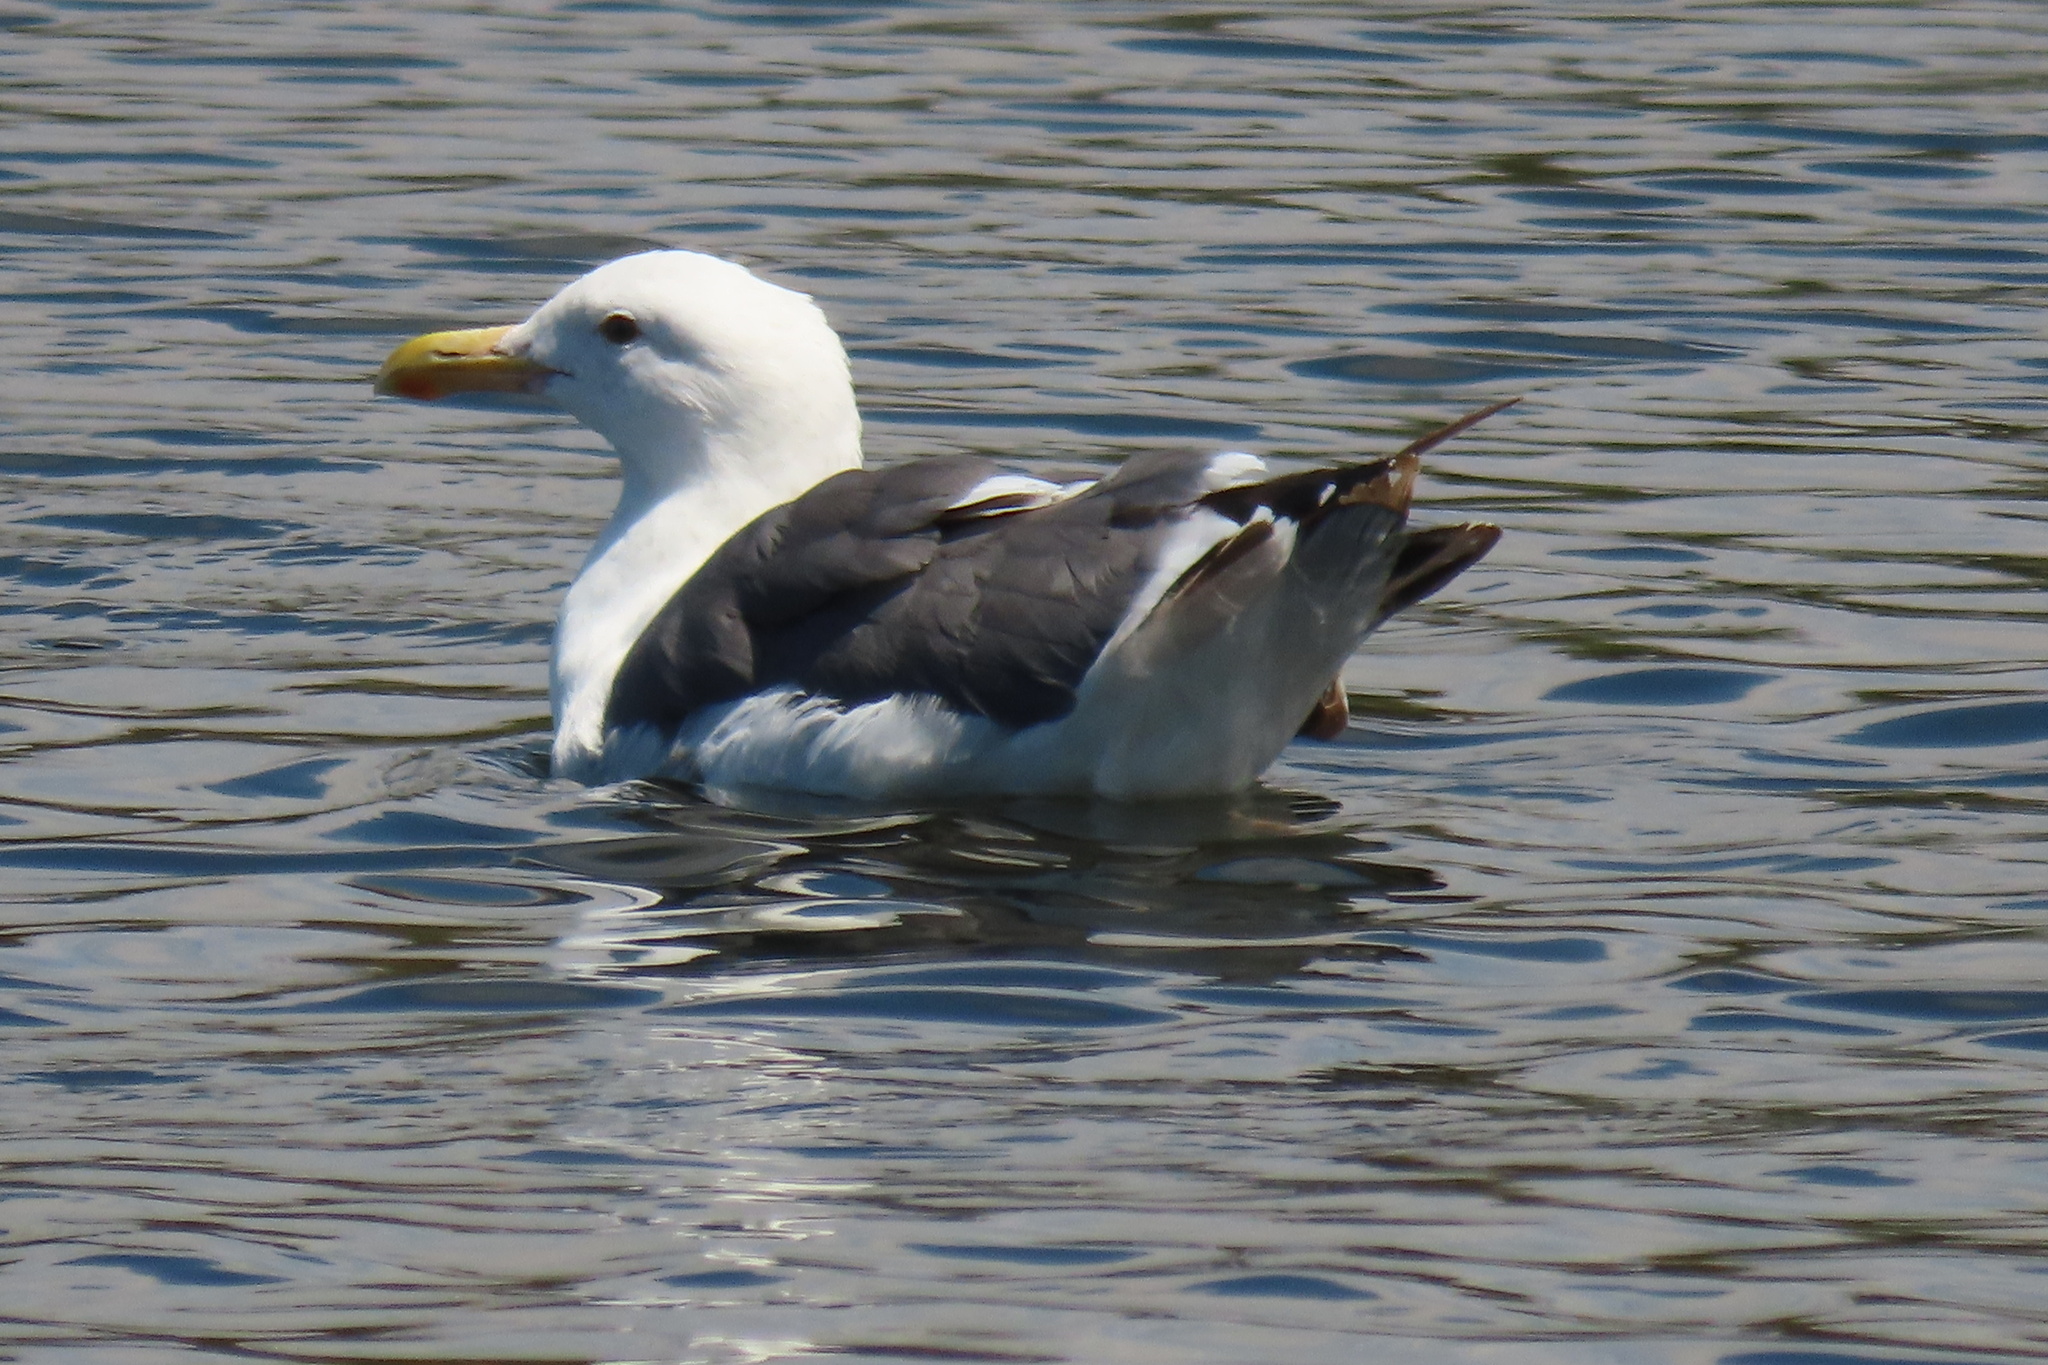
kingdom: Animalia
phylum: Chordata
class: Aves
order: Charadriiformes
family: Laridae
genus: Larus
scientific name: Larus occidentalis
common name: Western gull
